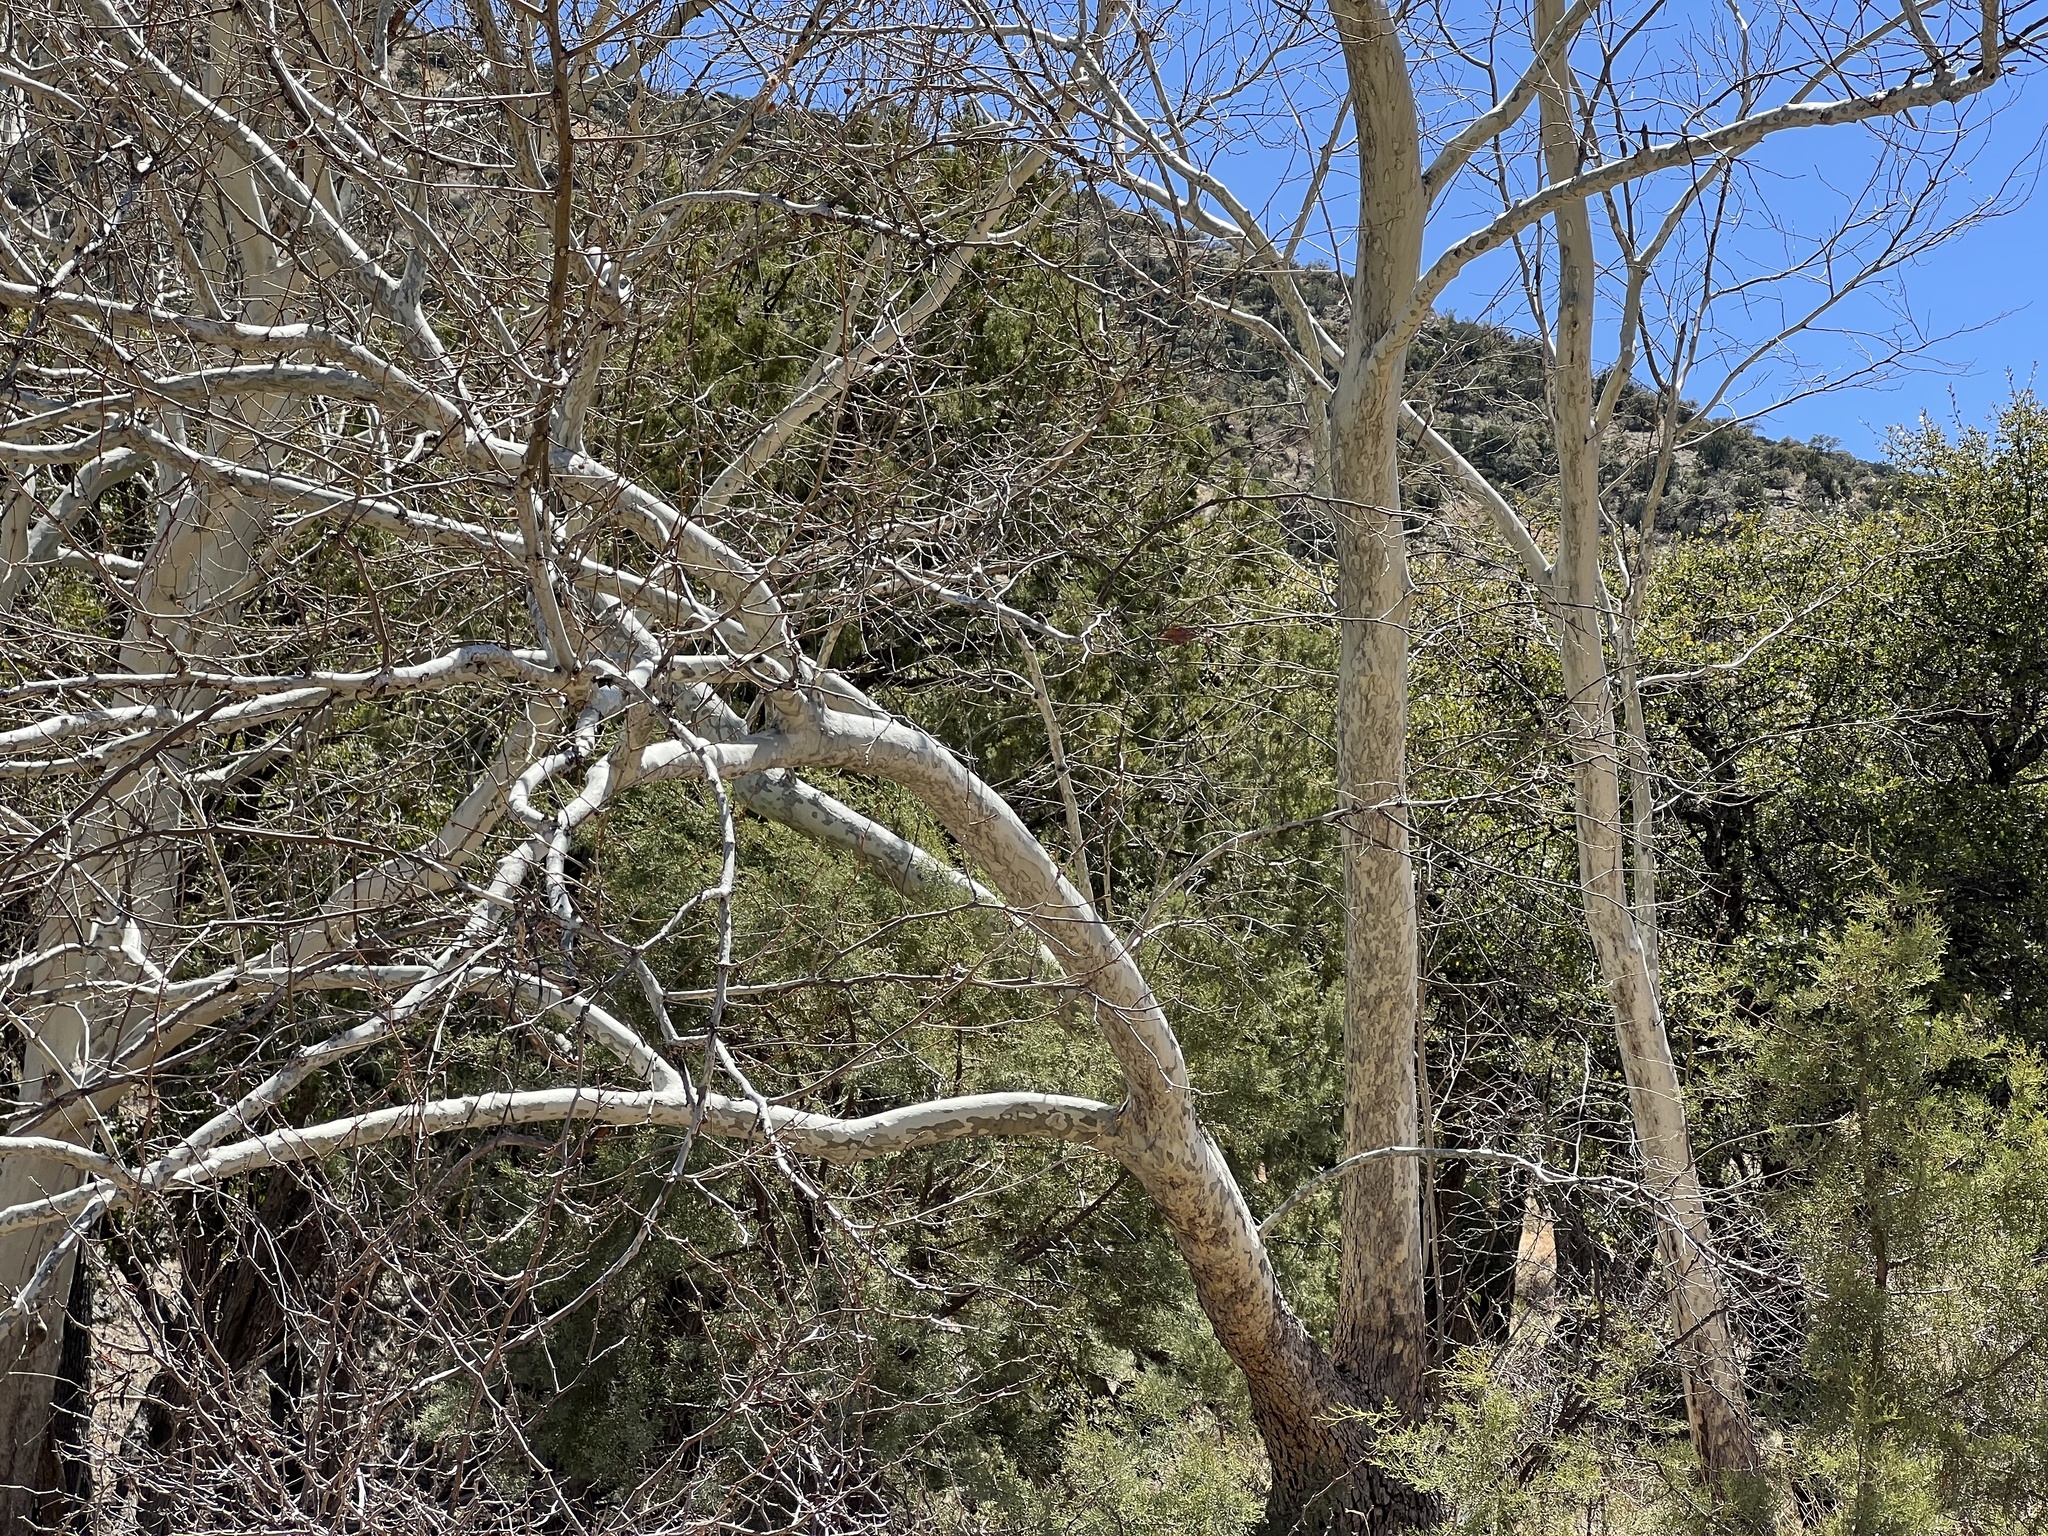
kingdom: Plantae
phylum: Tracheophyta
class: Magnoliopsida
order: Proteales
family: Platanaceae
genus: Platanus
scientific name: Platanus wrightii
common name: Arizona sycamore
